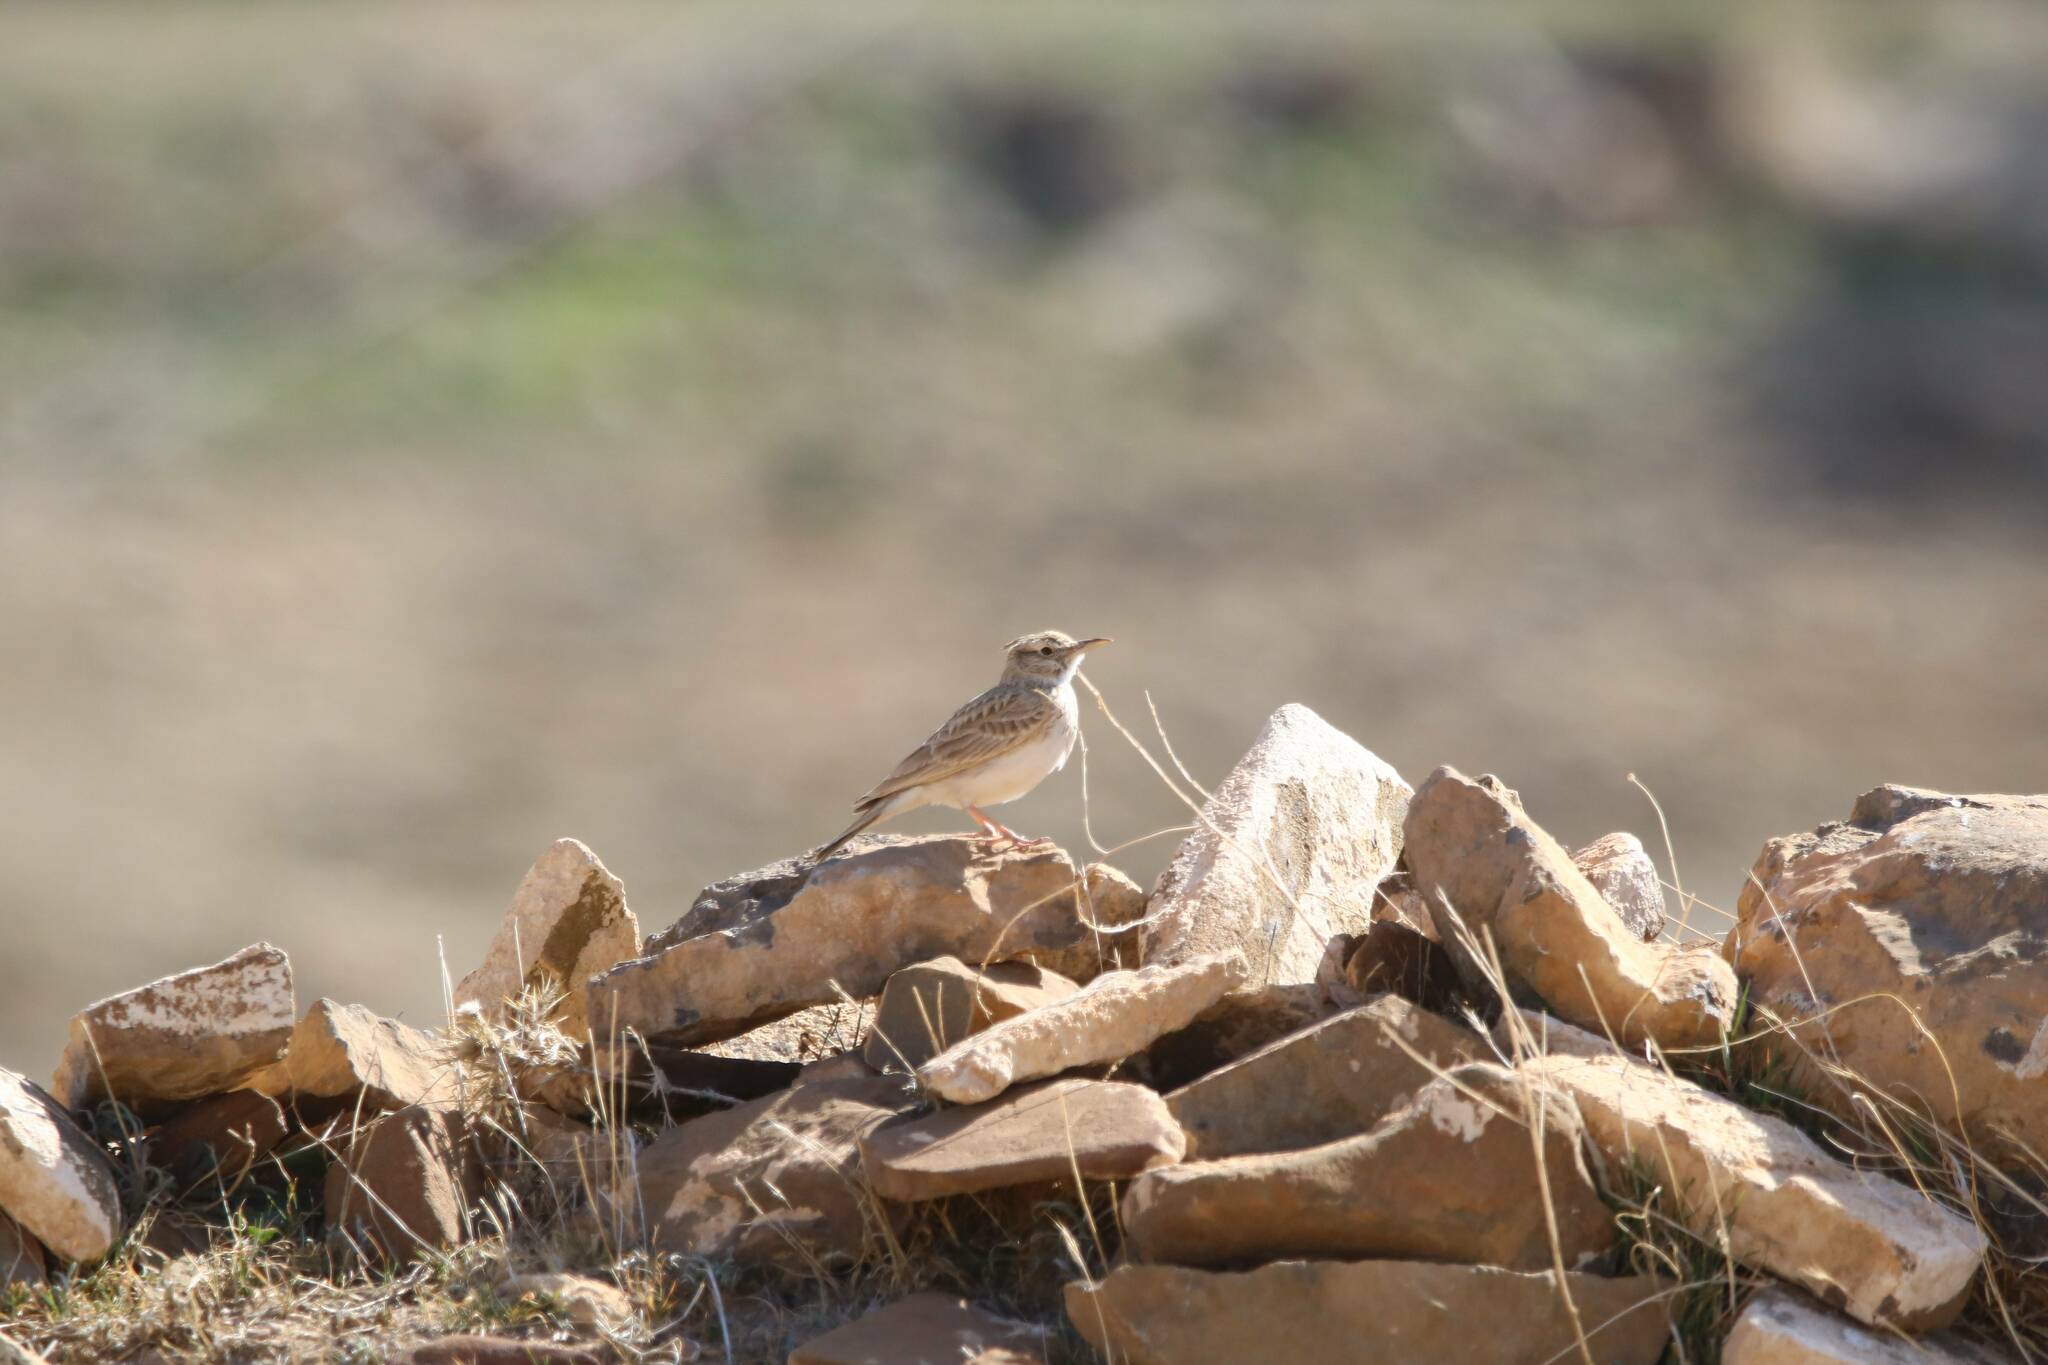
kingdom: Animalia
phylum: Chordata
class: Aves
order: Passeriformes
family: Alaudidae
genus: Galerida
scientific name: Galerida theklae
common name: Thekla lark
